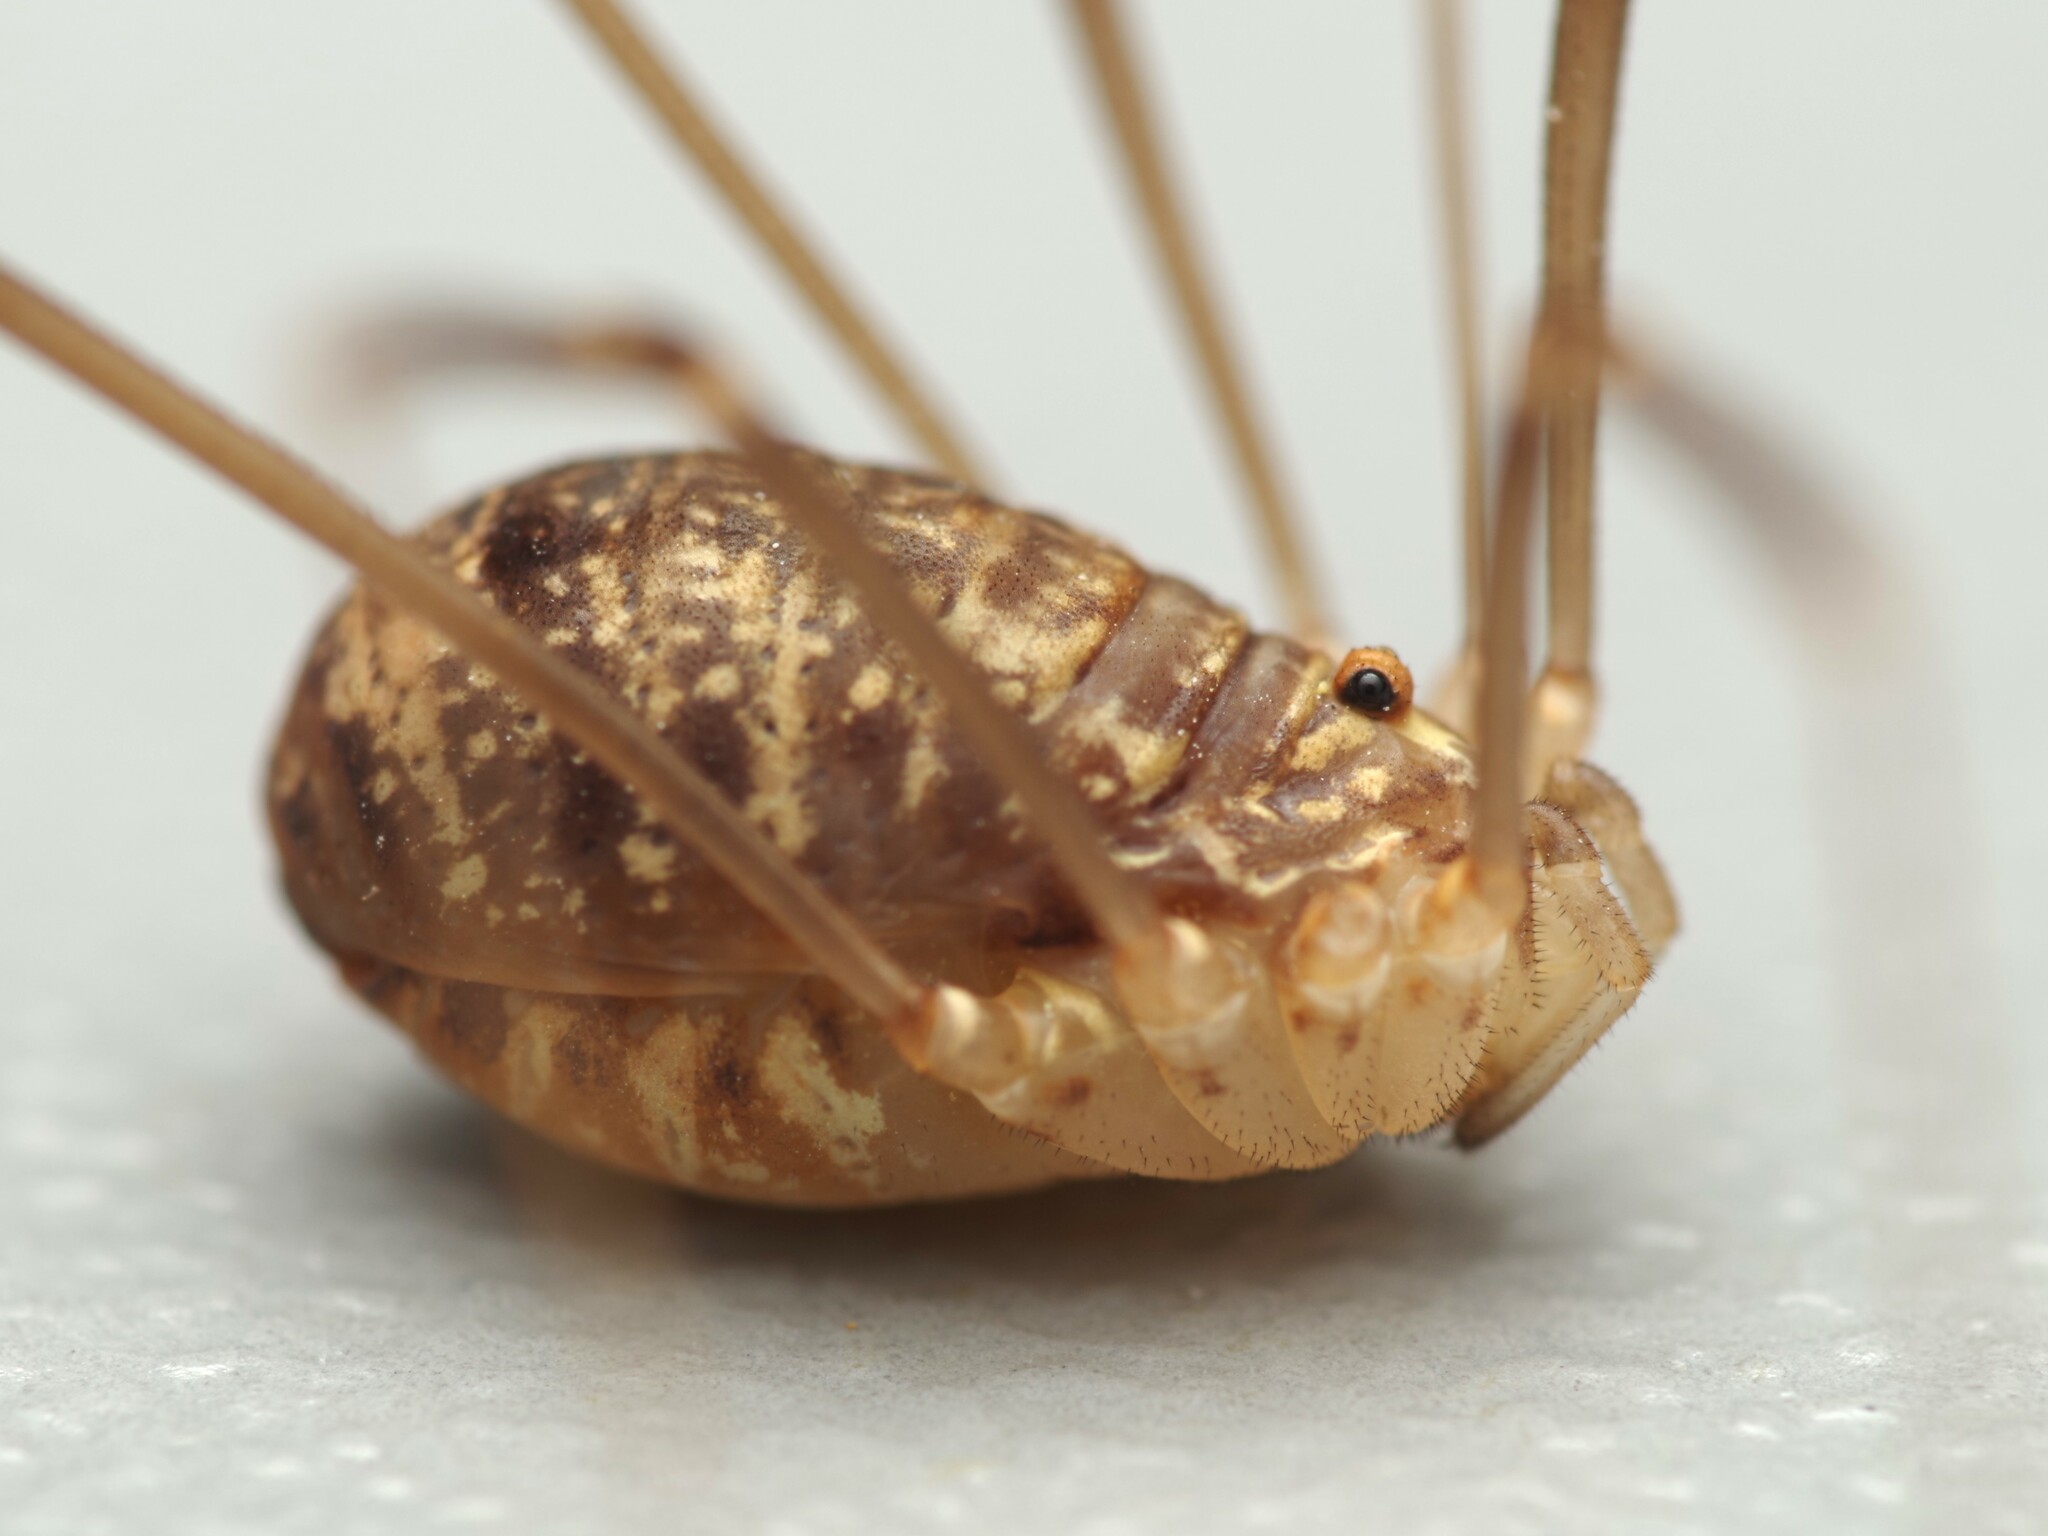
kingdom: Animalia
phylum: Arthropoda
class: Arachnida
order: Opiliones
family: Sclerosomatidae
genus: Nelima
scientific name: Nelima gothica
